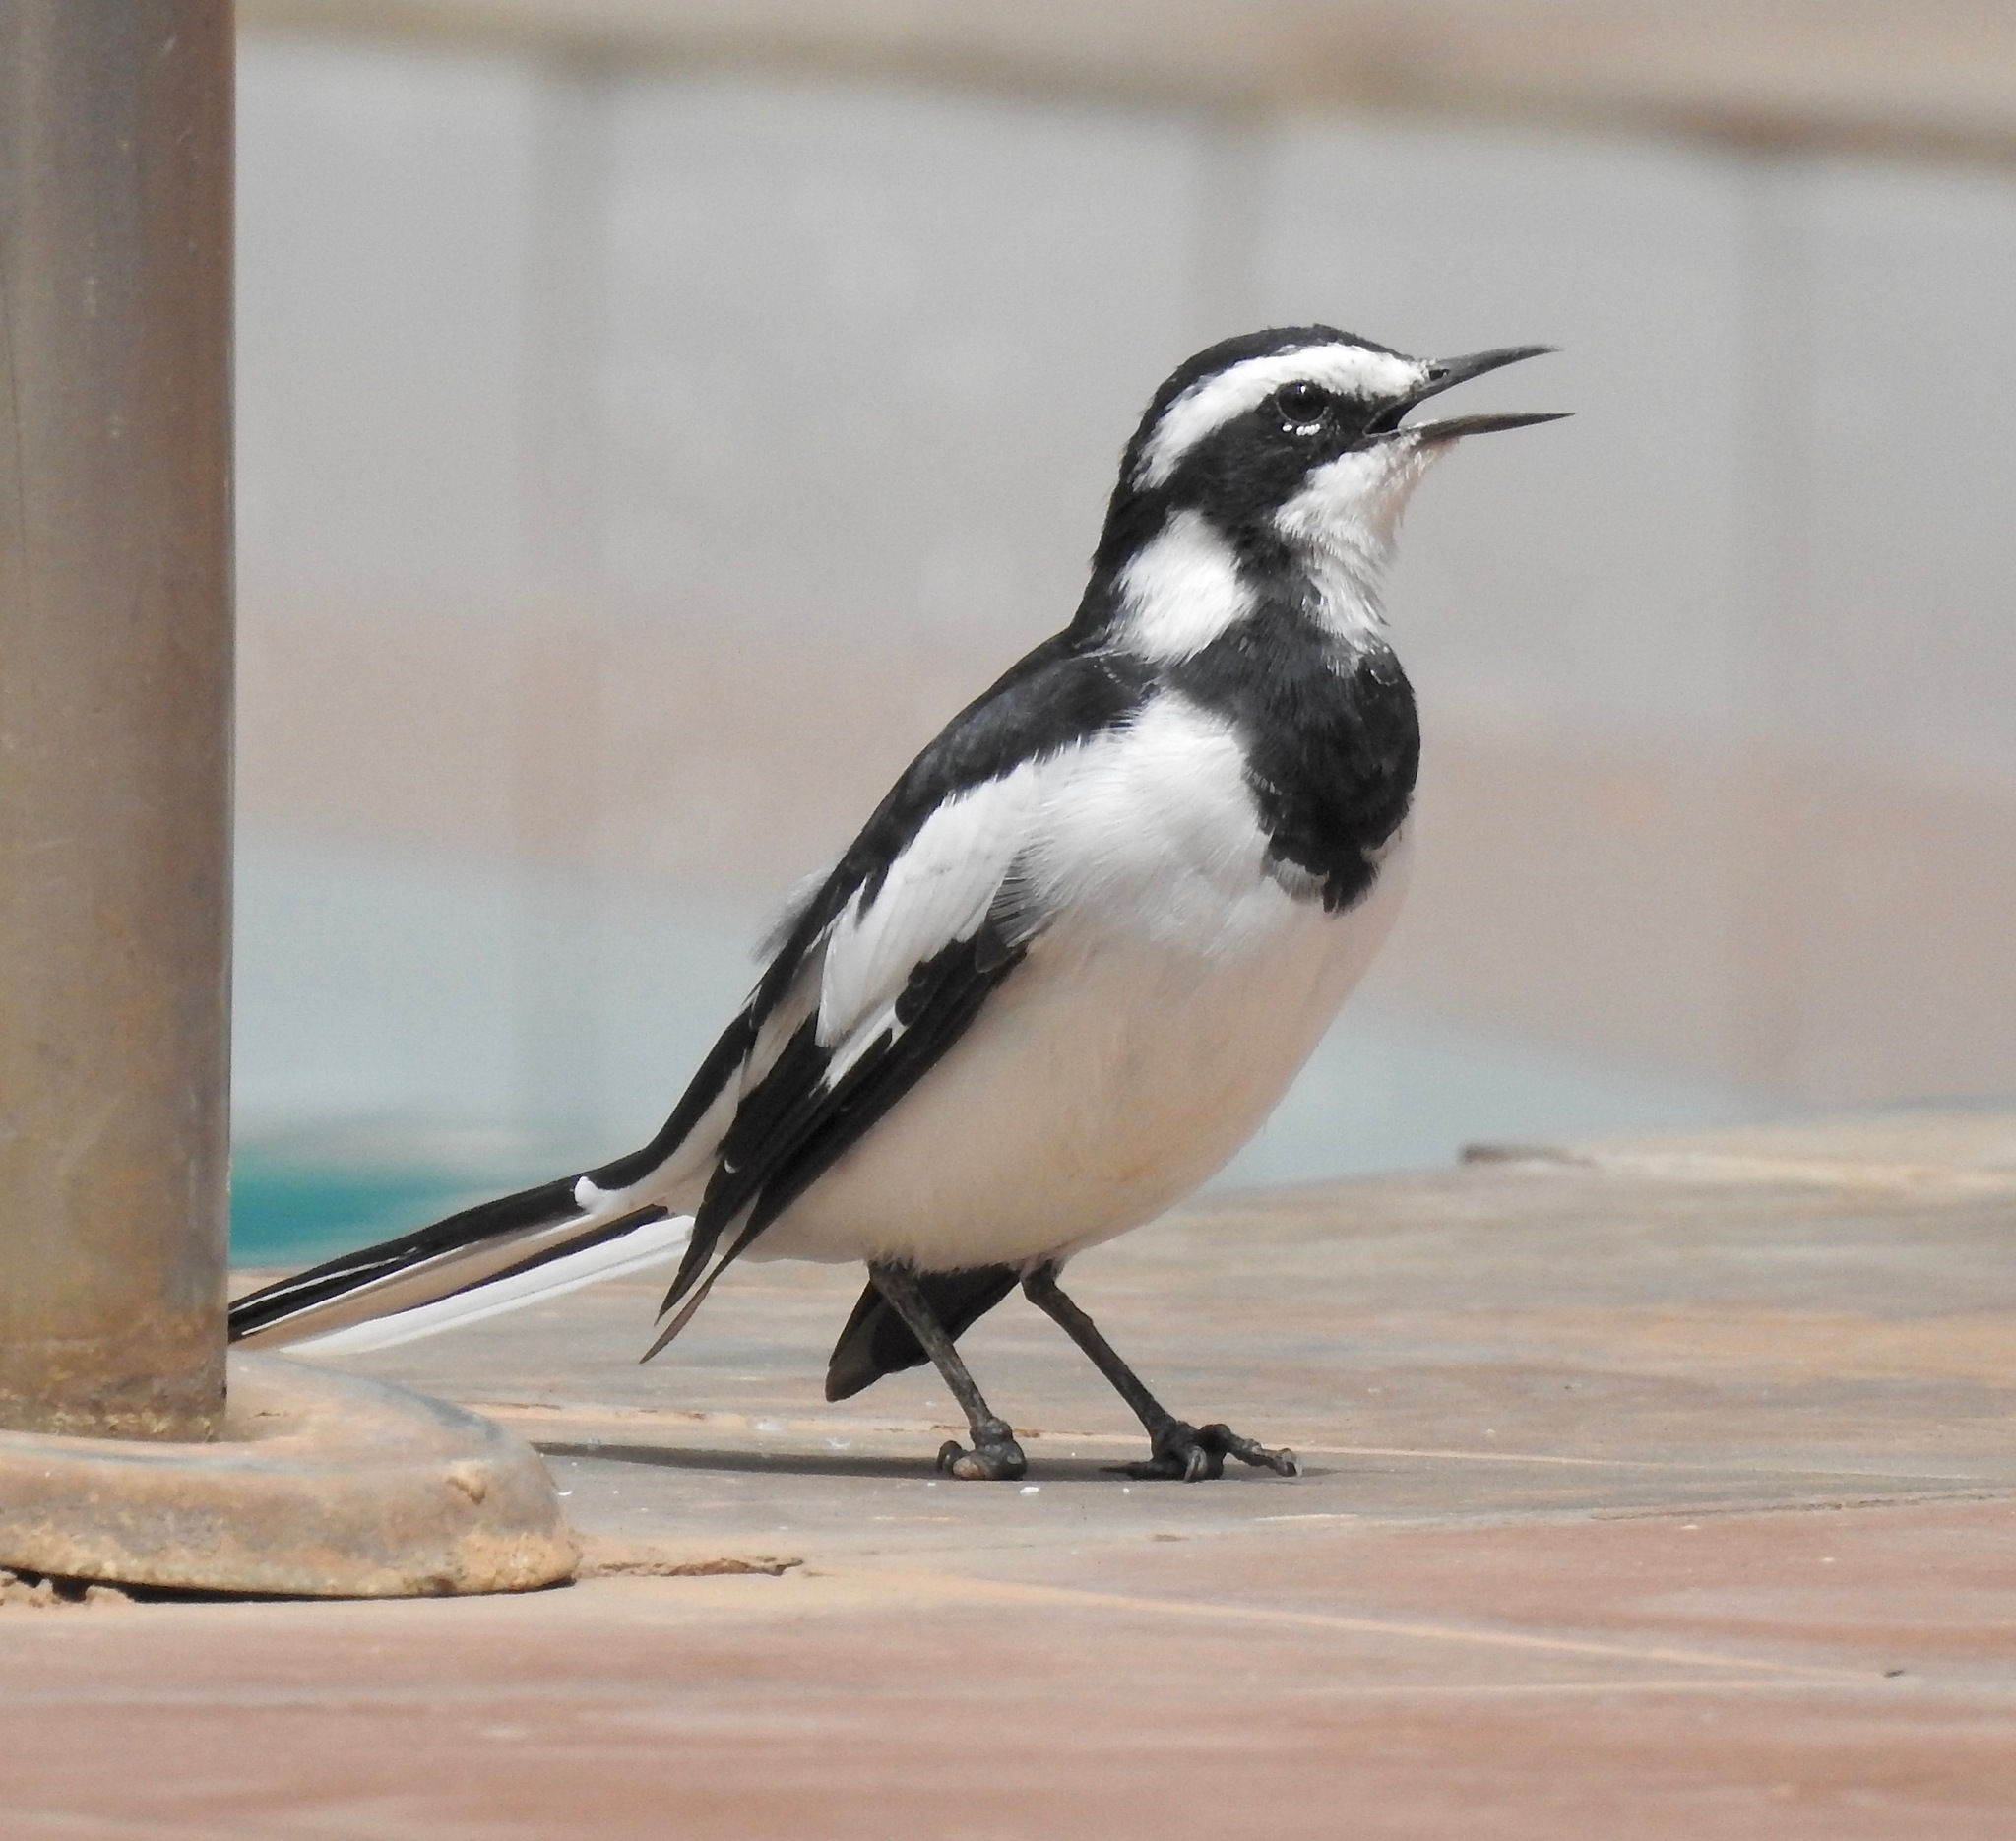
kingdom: Animalia
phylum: Chordata
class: Aves
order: Passeriformes
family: Motacillidae
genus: Motacilla
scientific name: Motacilla aguimp
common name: African pied wagtail
